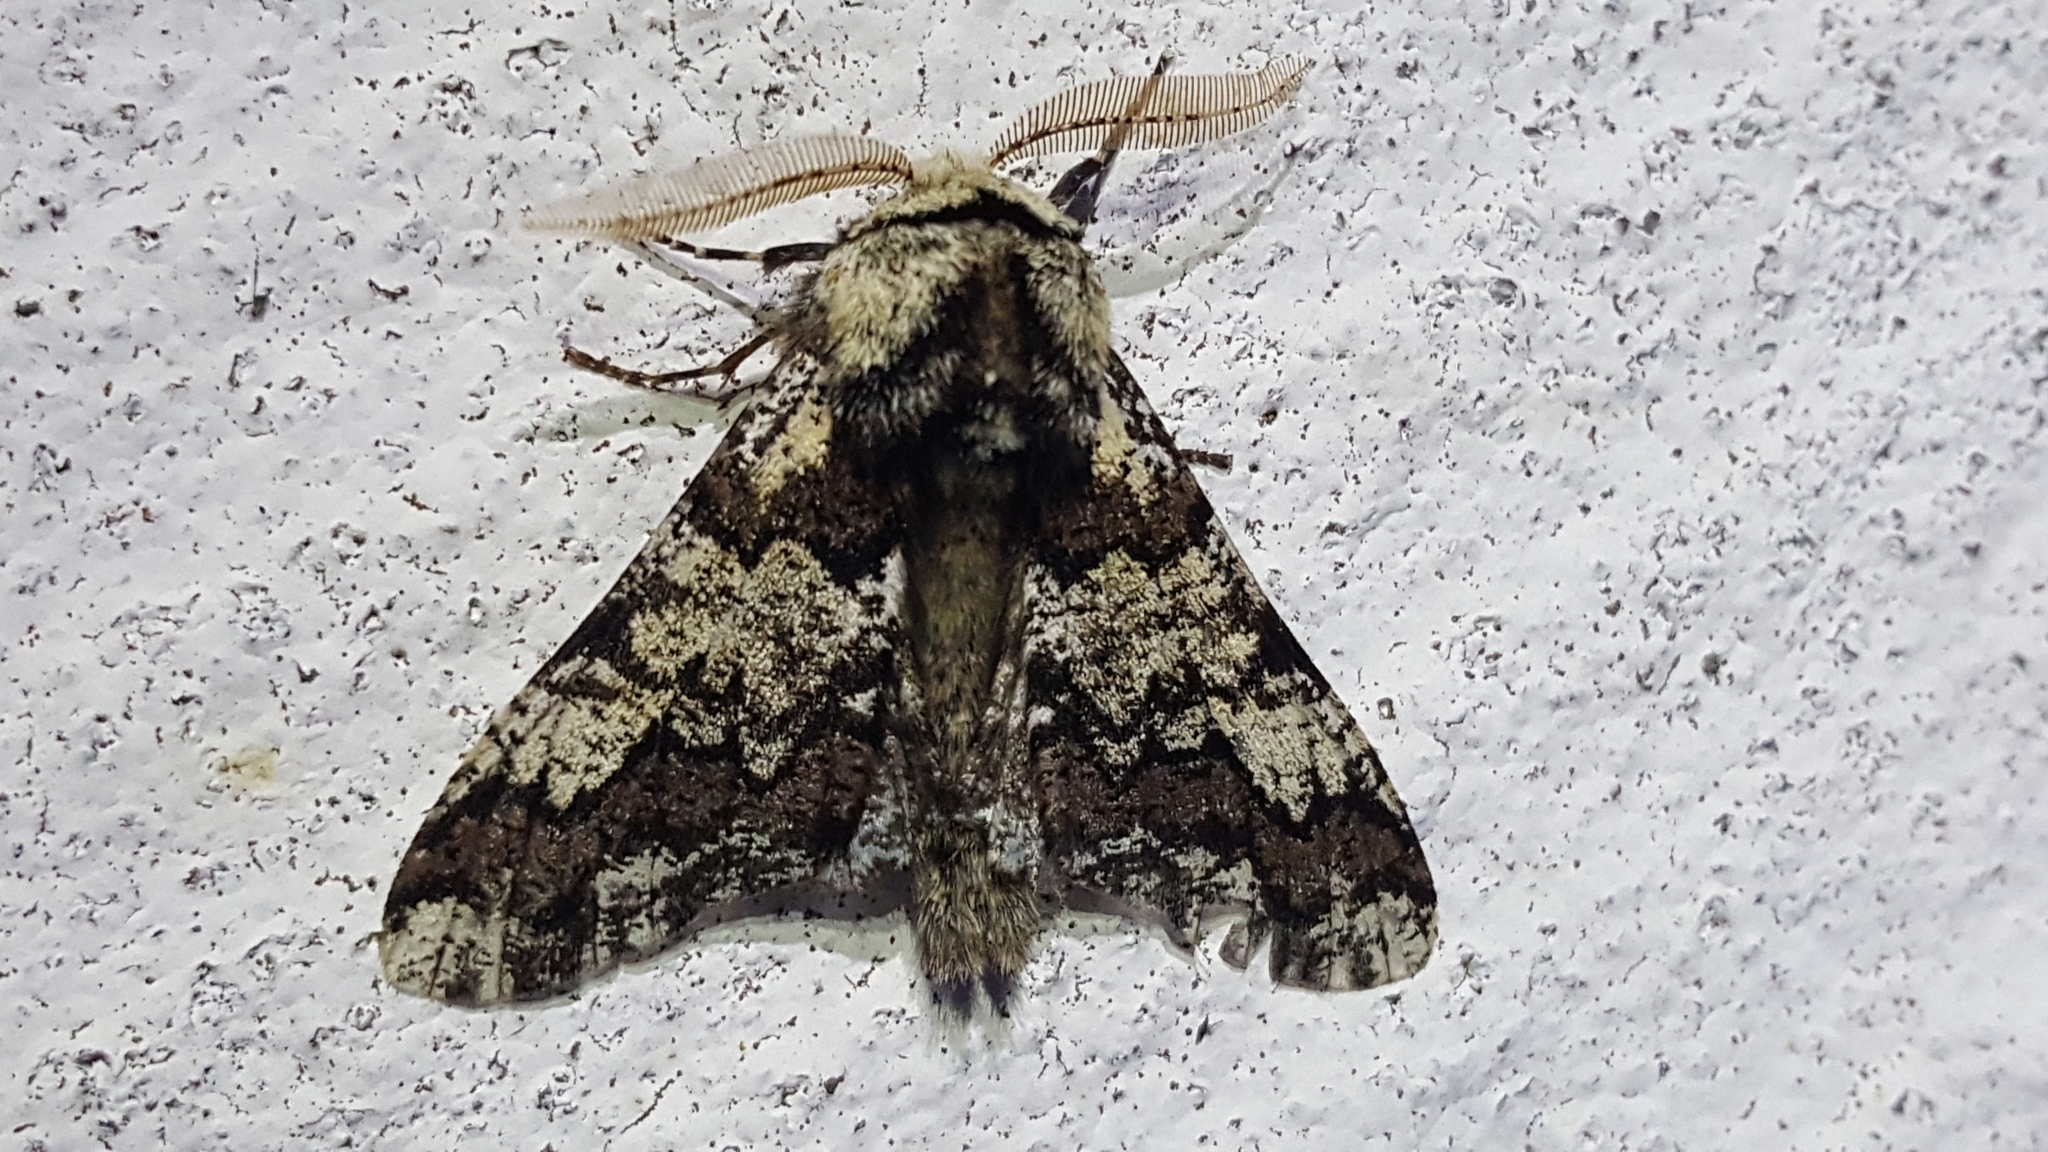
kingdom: Animalia
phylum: Arthropoda
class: Insecta
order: Lepidoptera
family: Geometridae
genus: Biston
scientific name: Biston strataria
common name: Oak beauty
